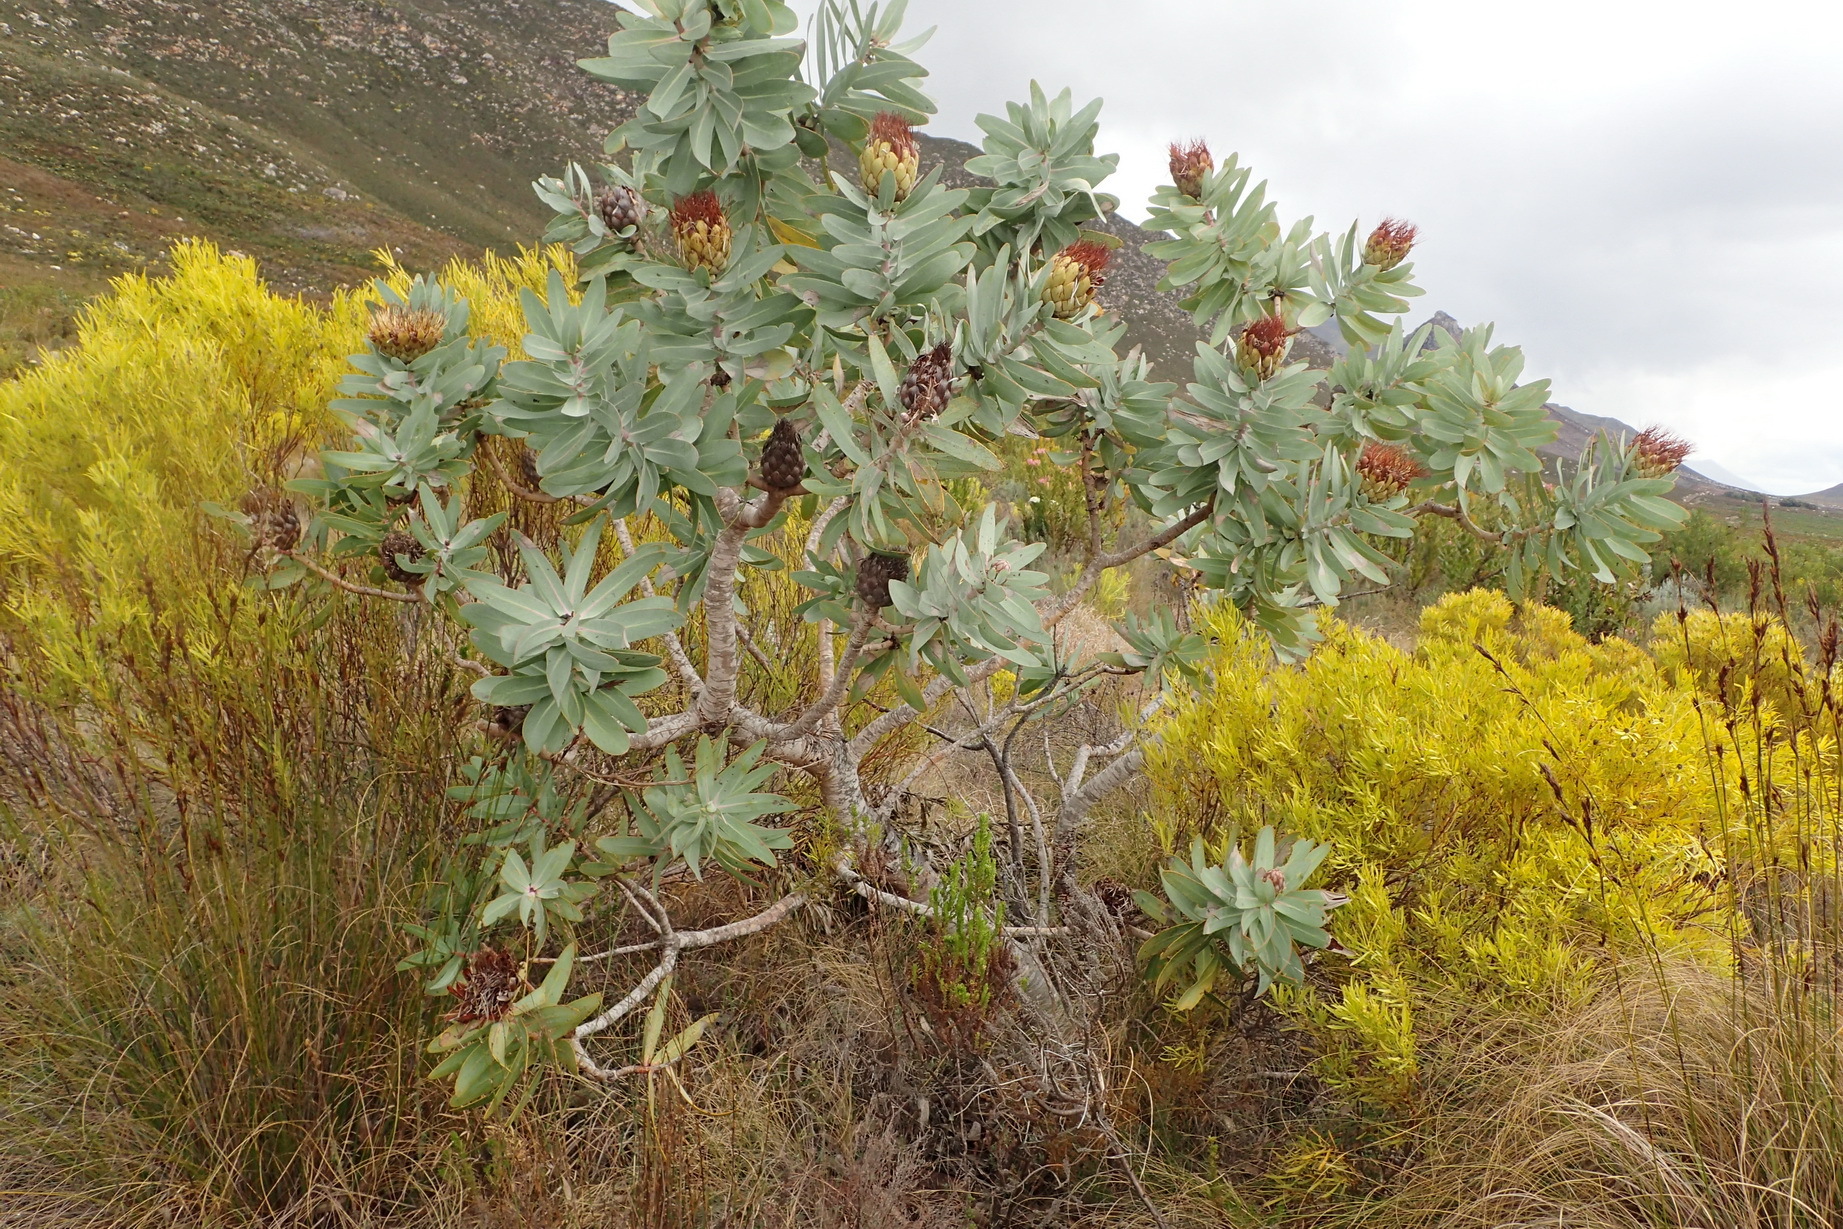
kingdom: Plantae
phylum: Tracheophyta
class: Magnoliopsida
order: Proteales
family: Proteaceae
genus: Protea
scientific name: Protea nitida
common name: Tree protea
